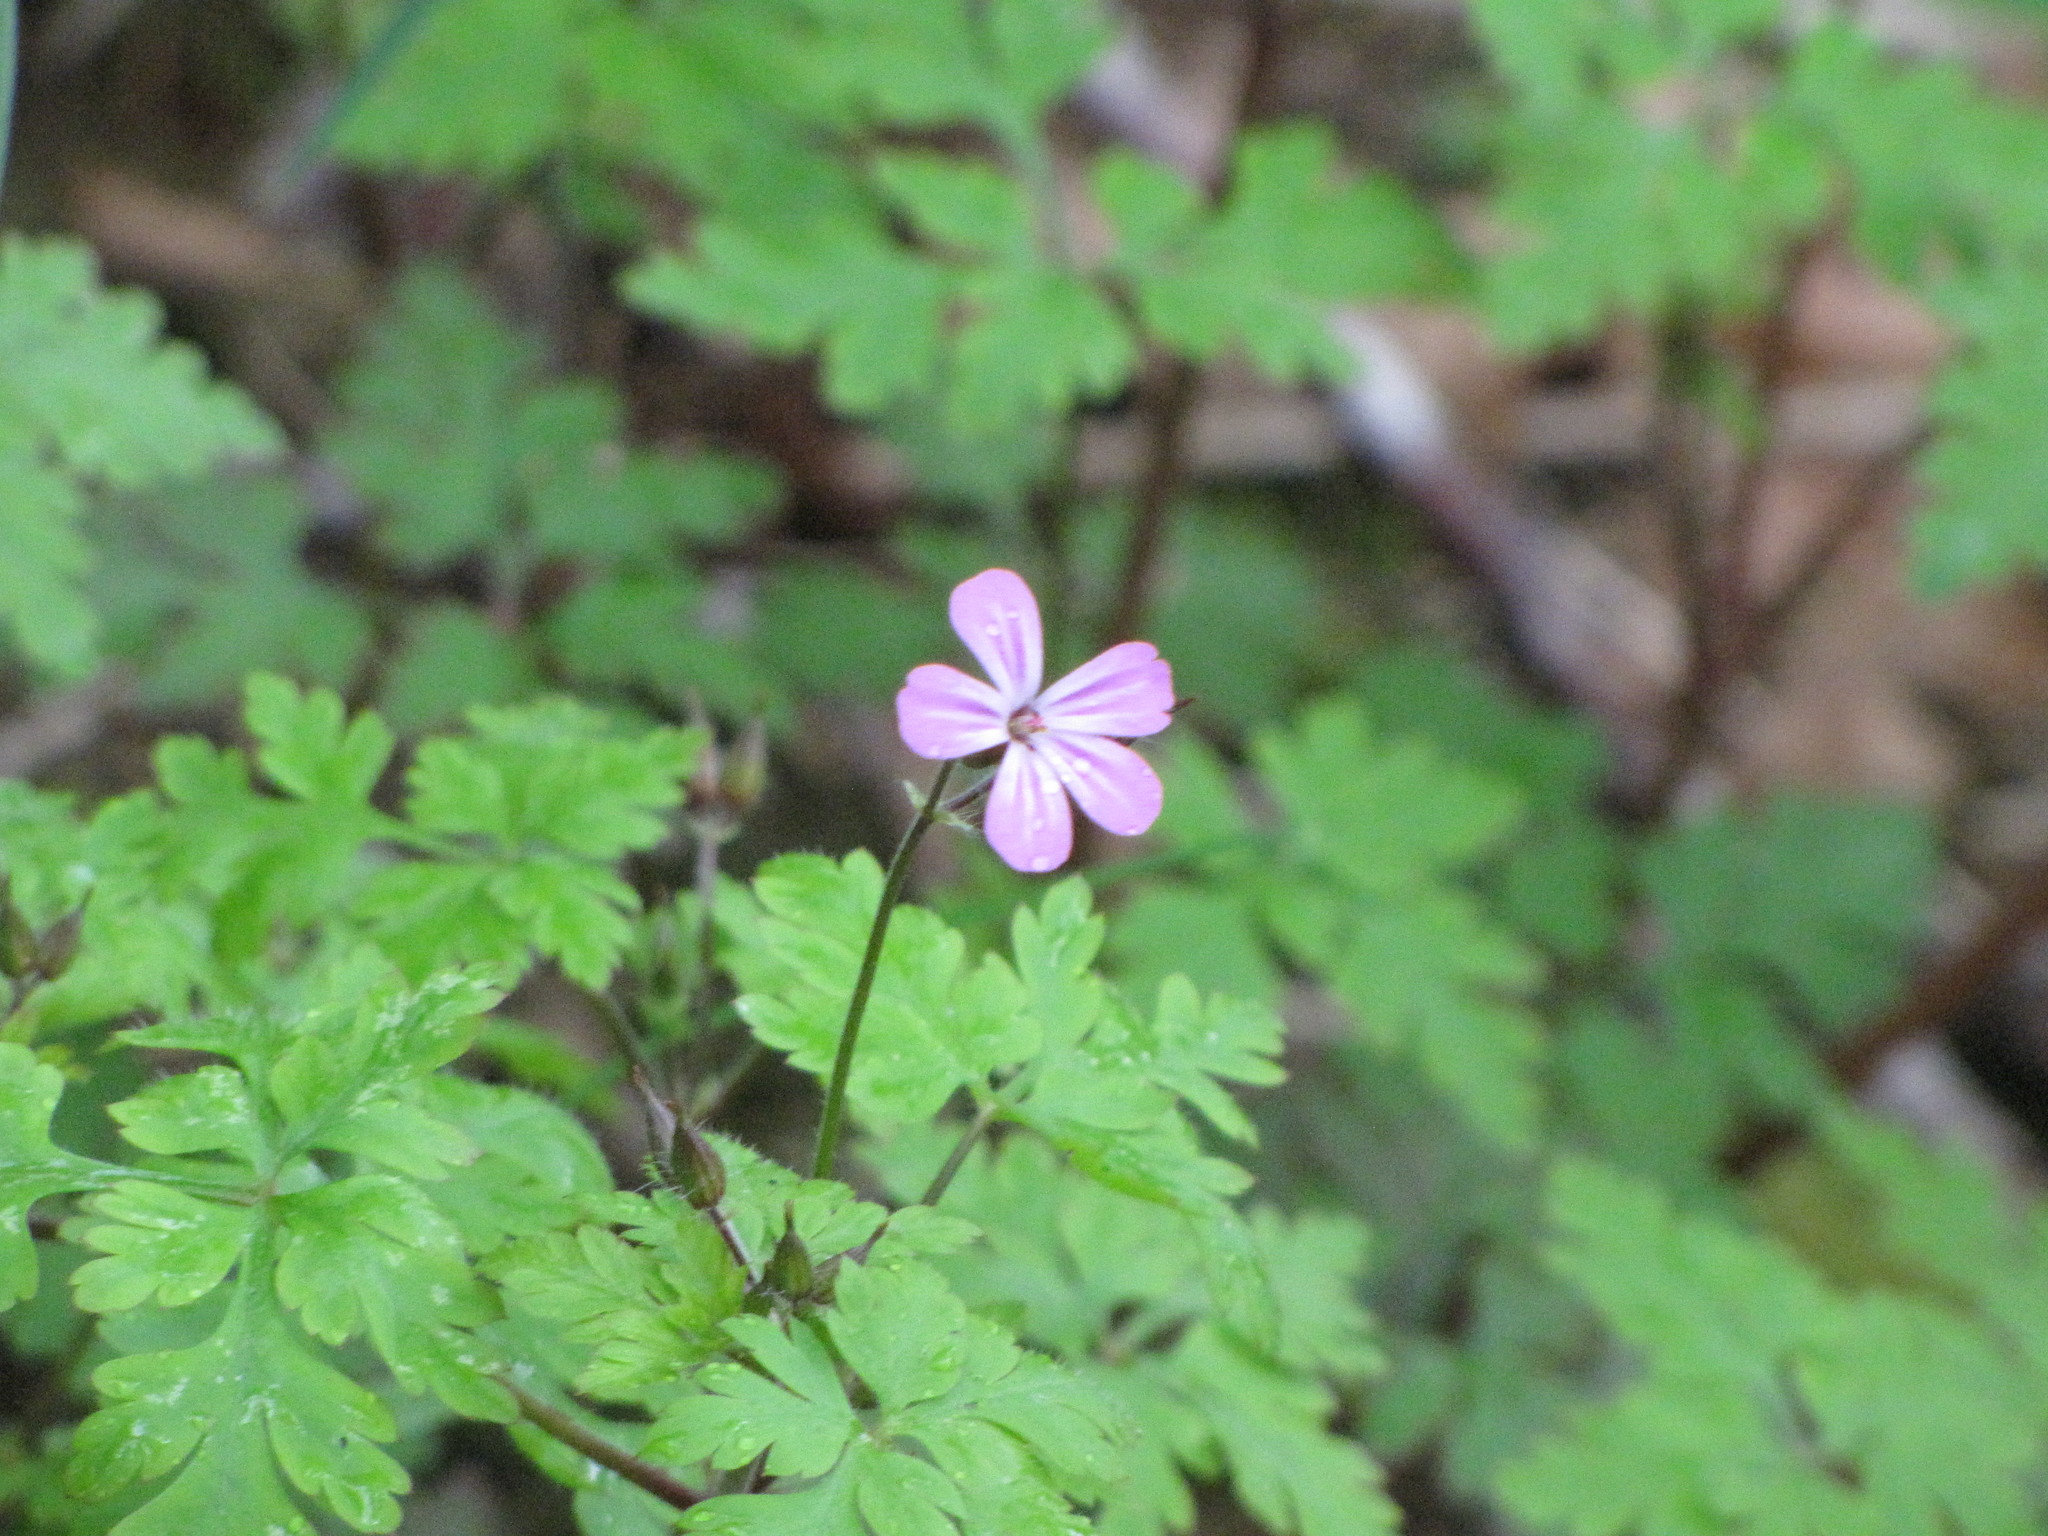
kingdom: Plantae
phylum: Tracheophyta
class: Magnoliopsida
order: Geraniales
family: Geraniaceae
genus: Geranium
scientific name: Geranium robertianum
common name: Herb-robert
